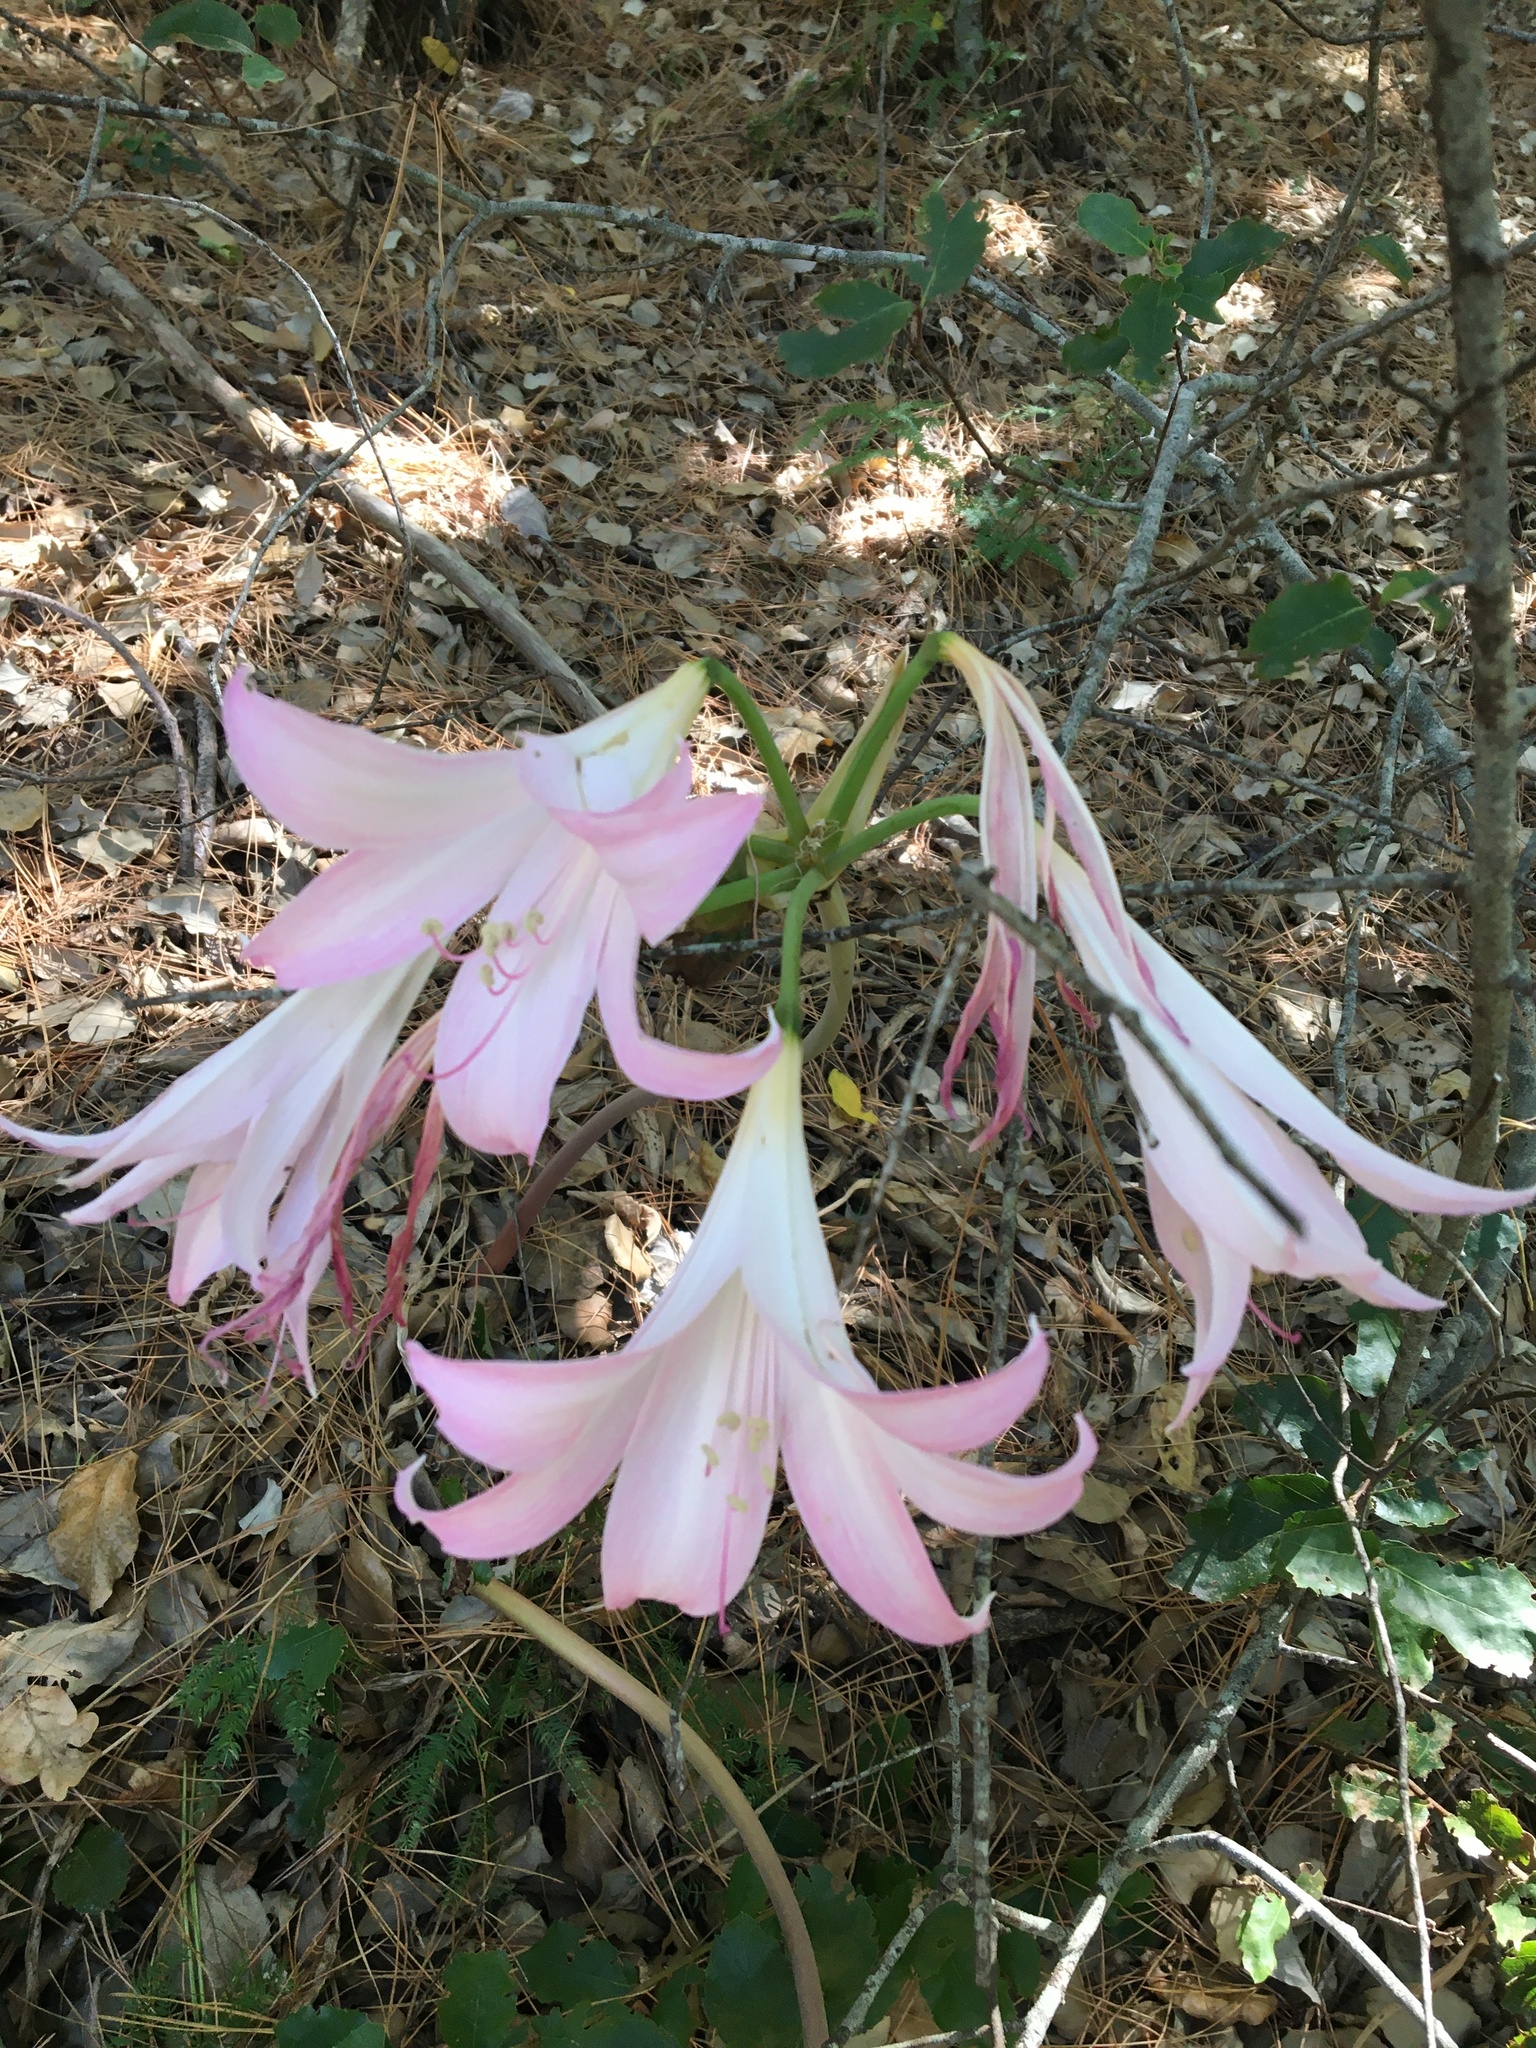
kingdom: Plantae
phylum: Tracheophyta
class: Liliopsida
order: Asparagales
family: Amaryllidaceae
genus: Amaryllis
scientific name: Amaryllis belladonna
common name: Jersey lily
